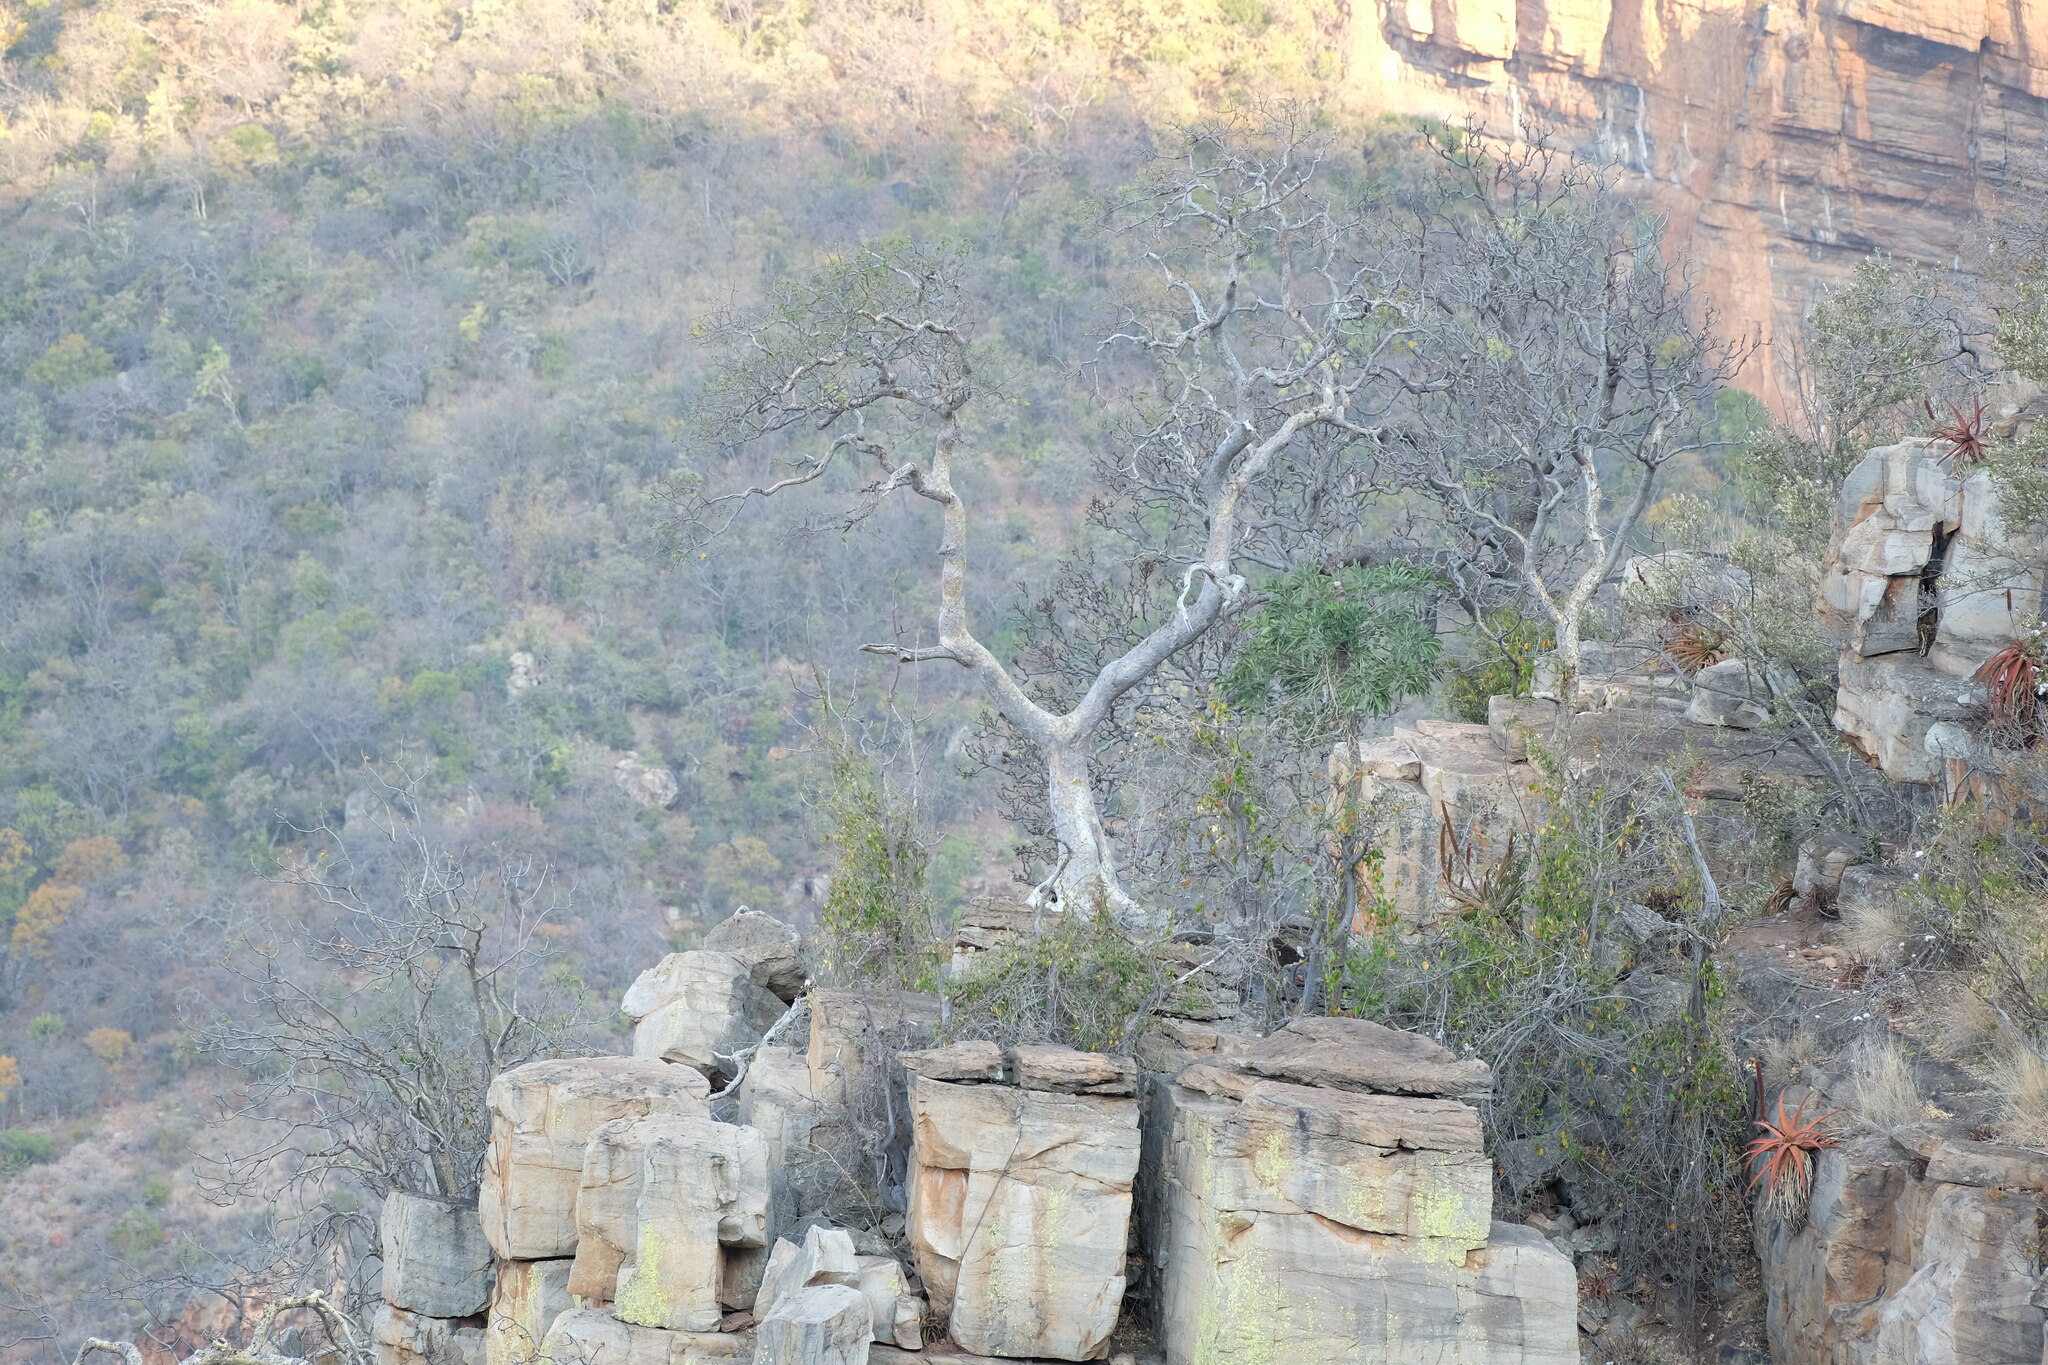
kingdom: Plantae
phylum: Tracheophyta
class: Magnoliopsida
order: Rosales
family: Moraceae
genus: Ficus
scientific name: Ficus glumosa
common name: Hairy rock fig
